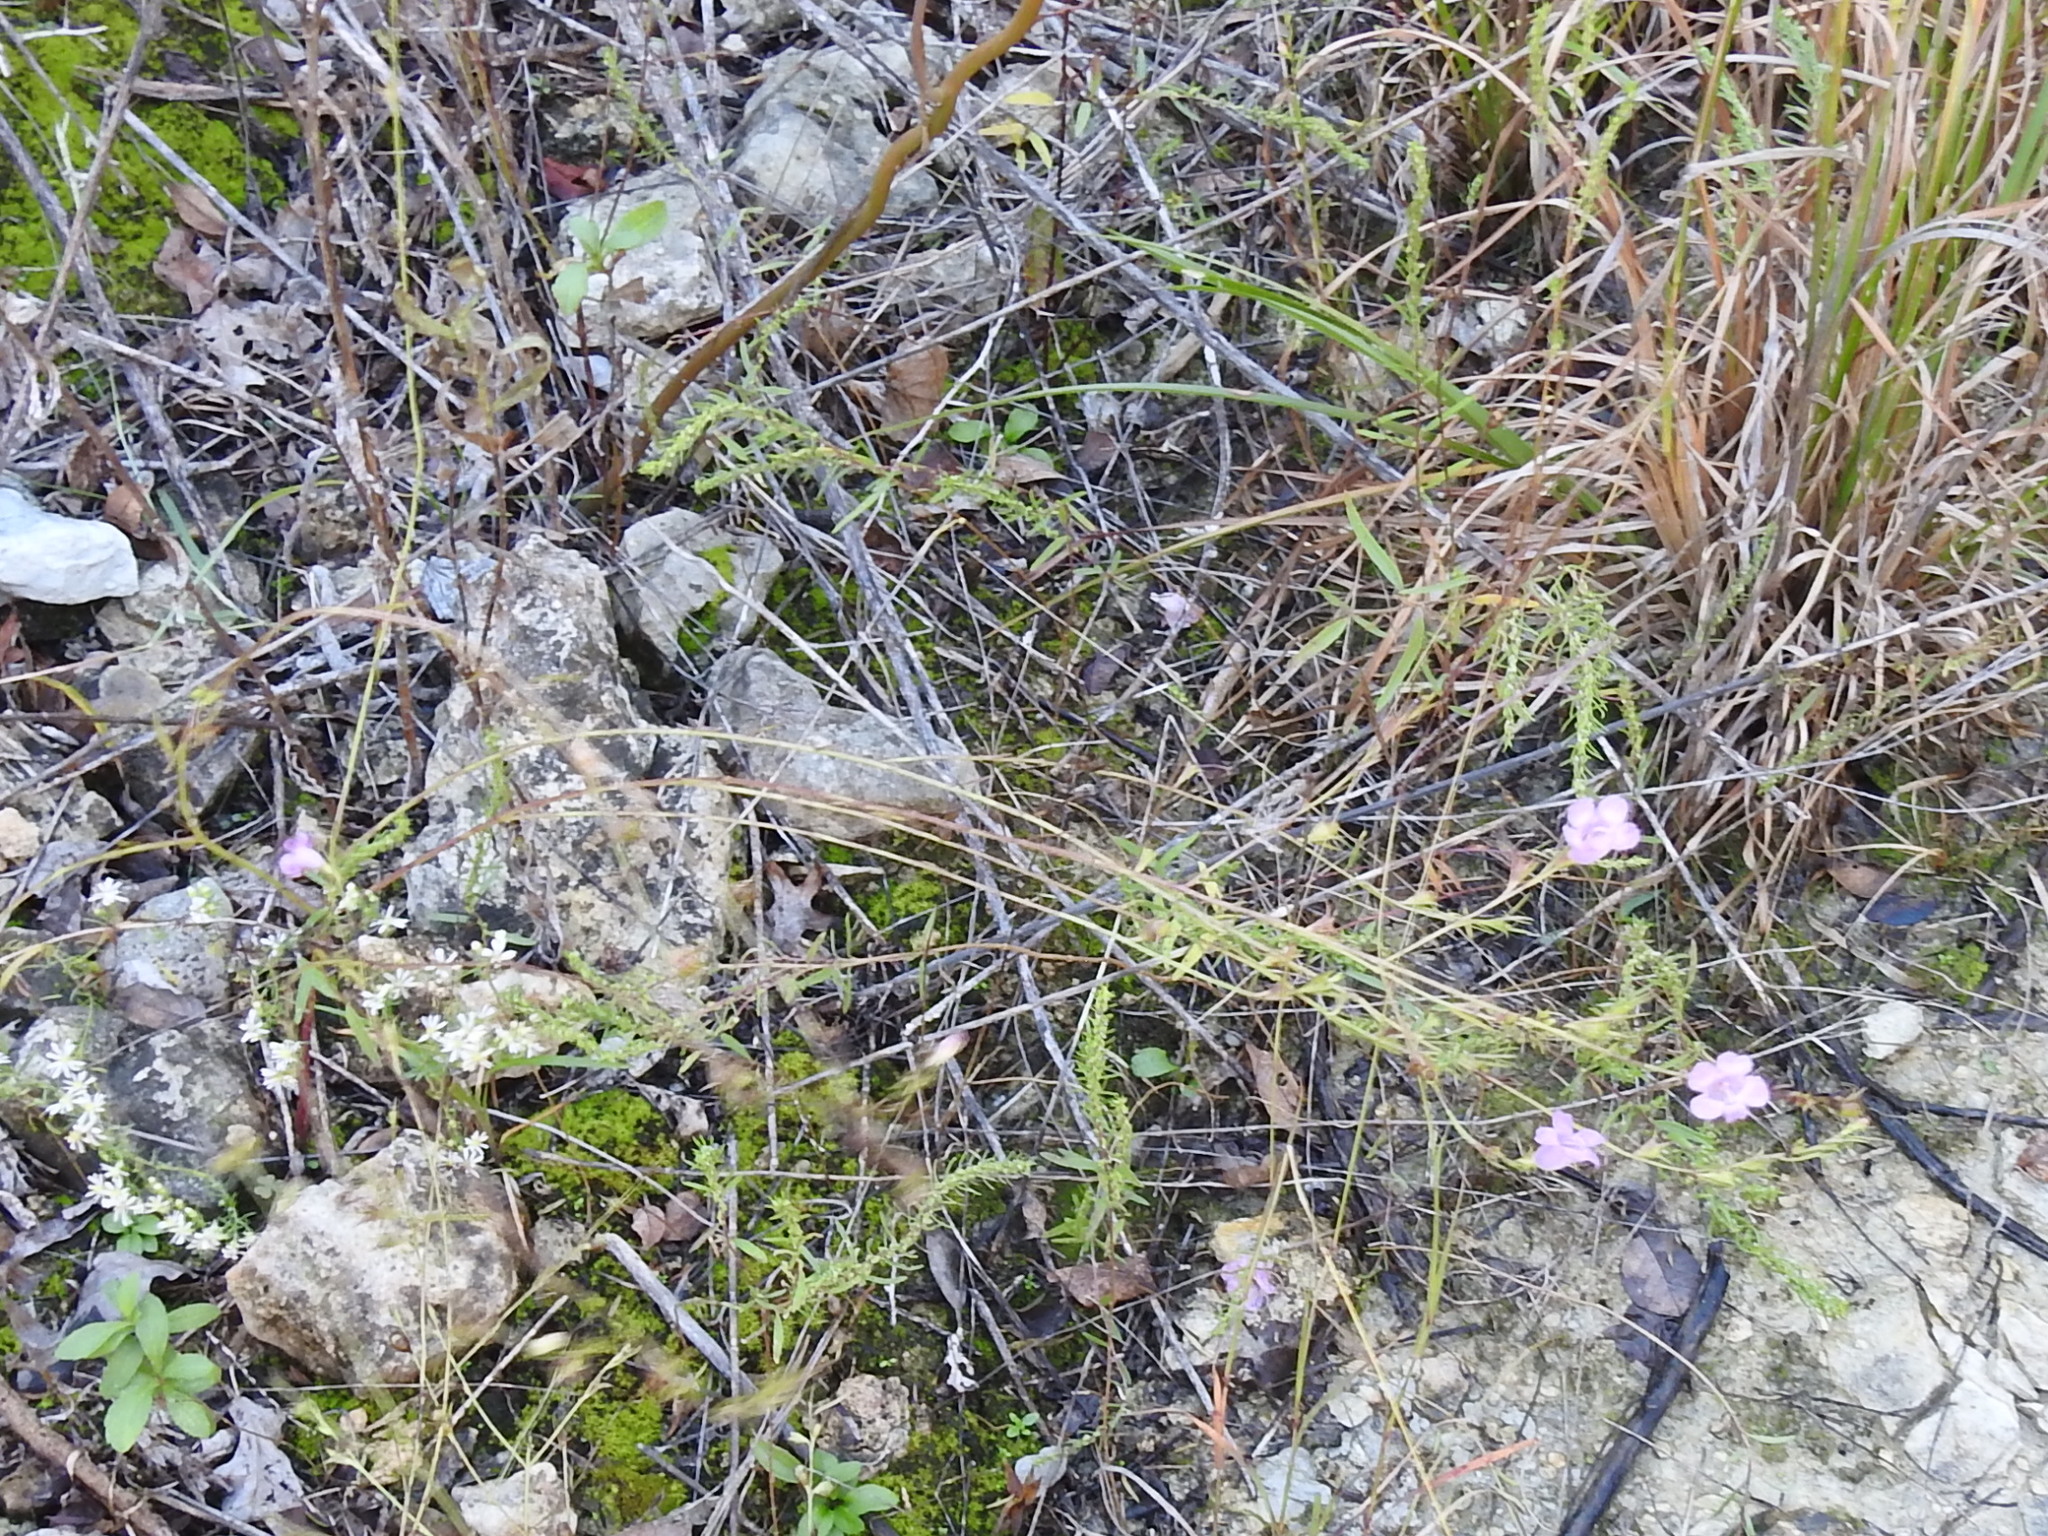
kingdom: Plantae
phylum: Tracheophyta
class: Magnoliopsida
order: Lamiales
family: Orobanchaceae
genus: Agalinis
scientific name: Agalinis heterophylla
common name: Prairie agalinis
